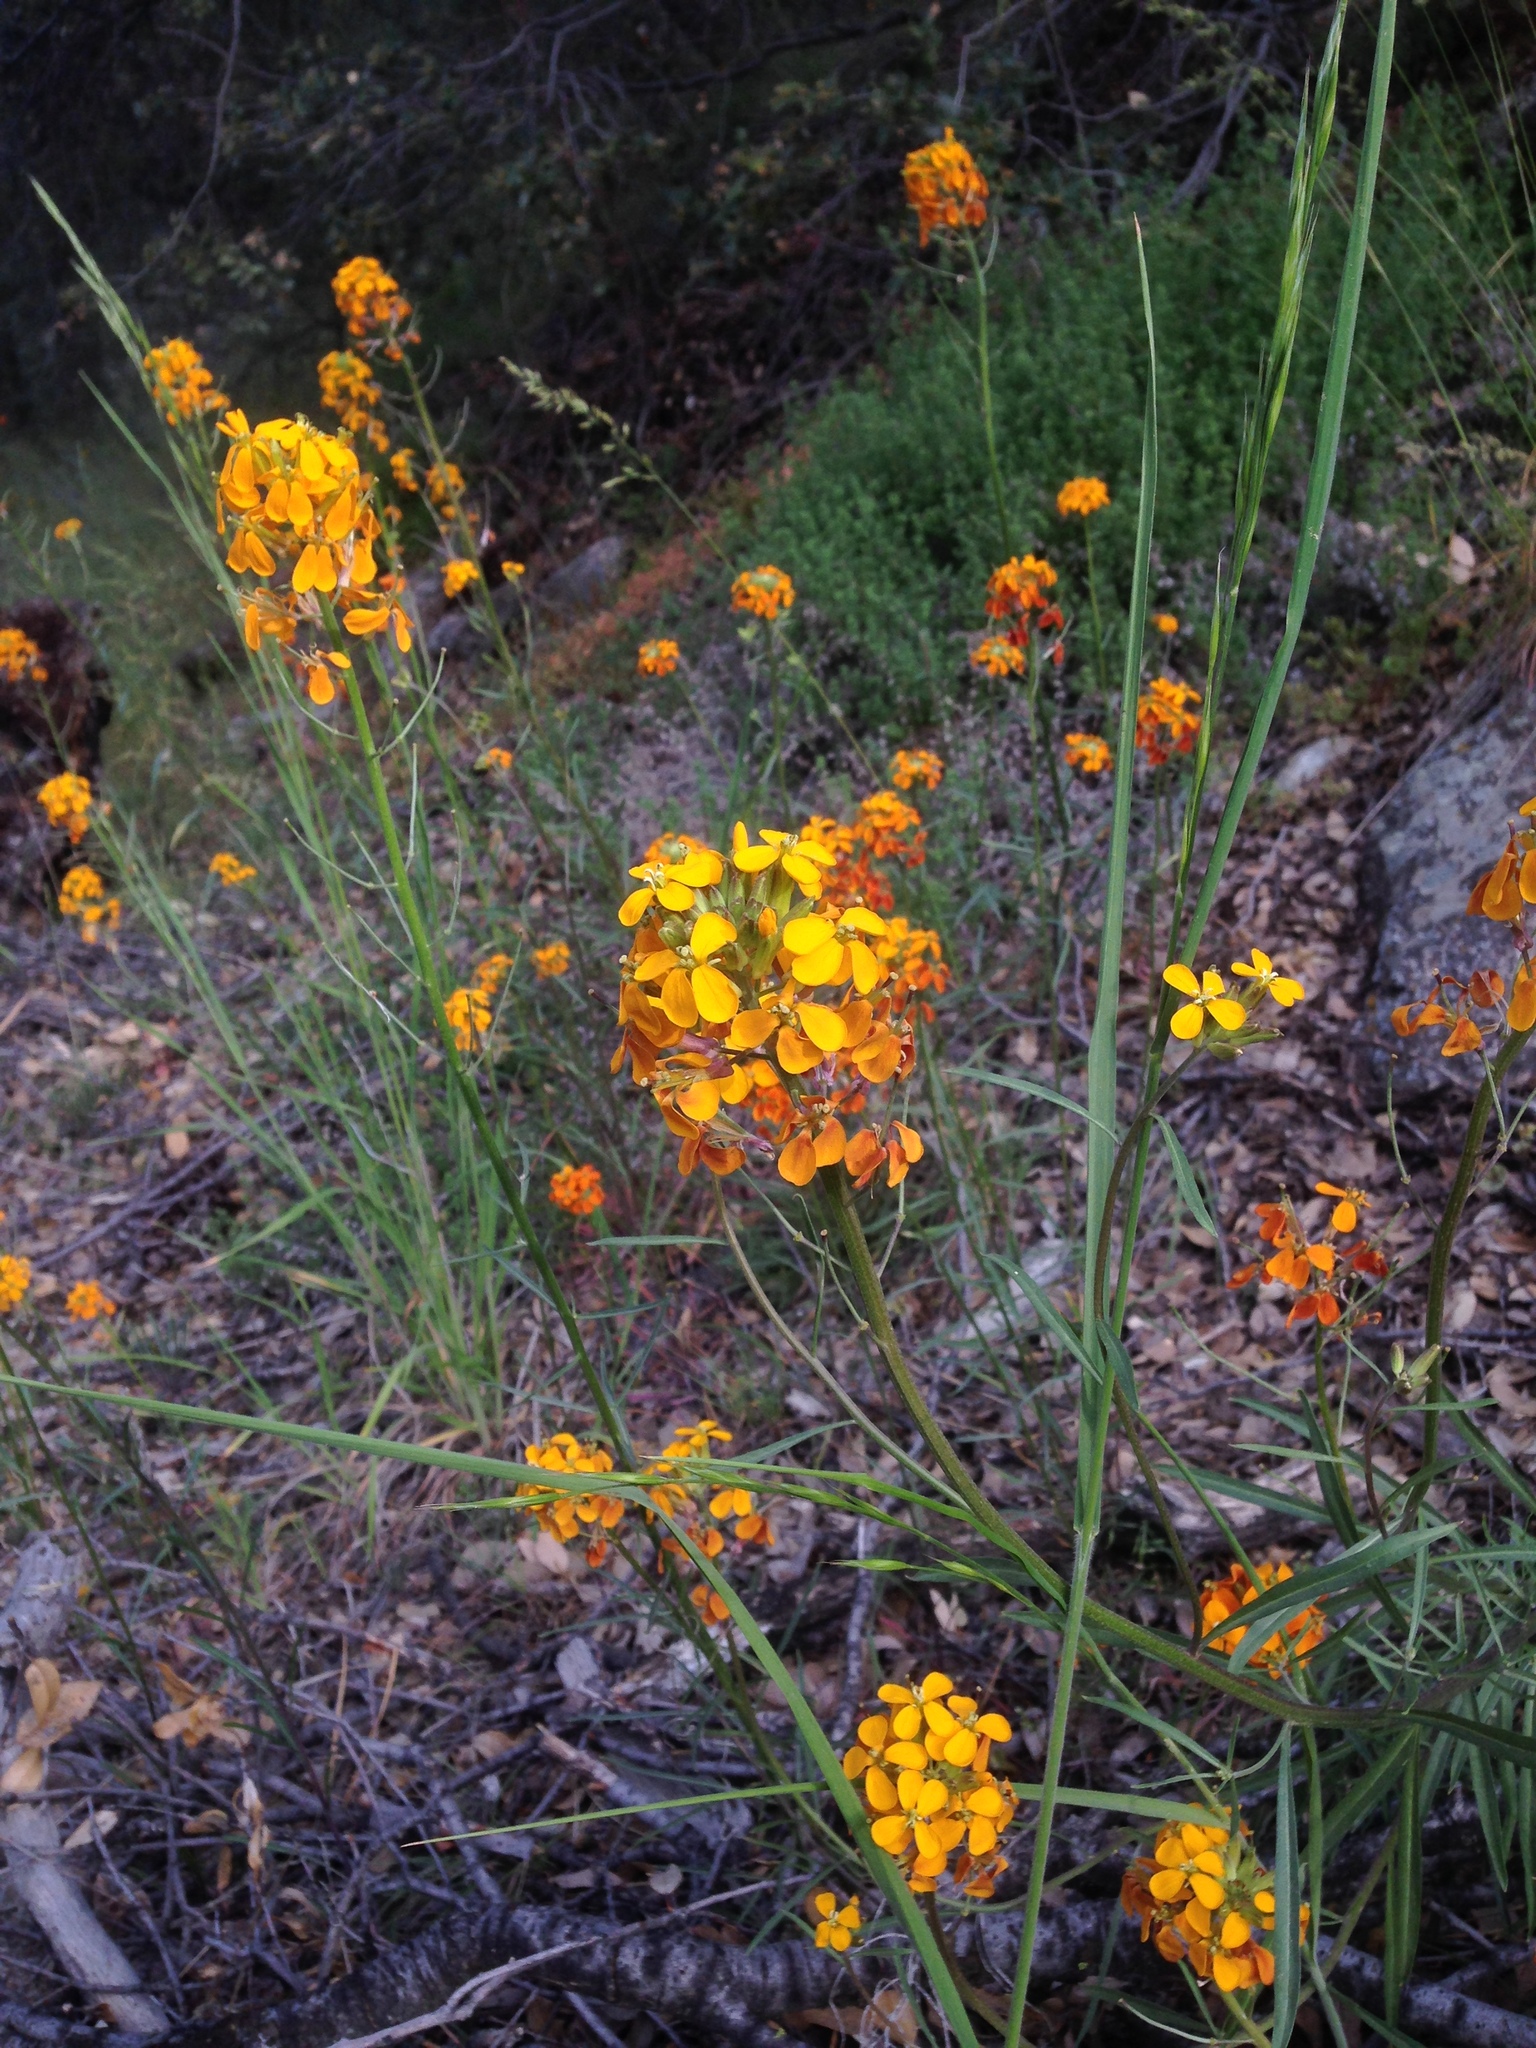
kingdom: Plantae
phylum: Tracheophyta
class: Magnoliopsida
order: Brassicales
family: Brassicaceae
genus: Erysimum
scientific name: Erysimum capitatum
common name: Western wallflower
